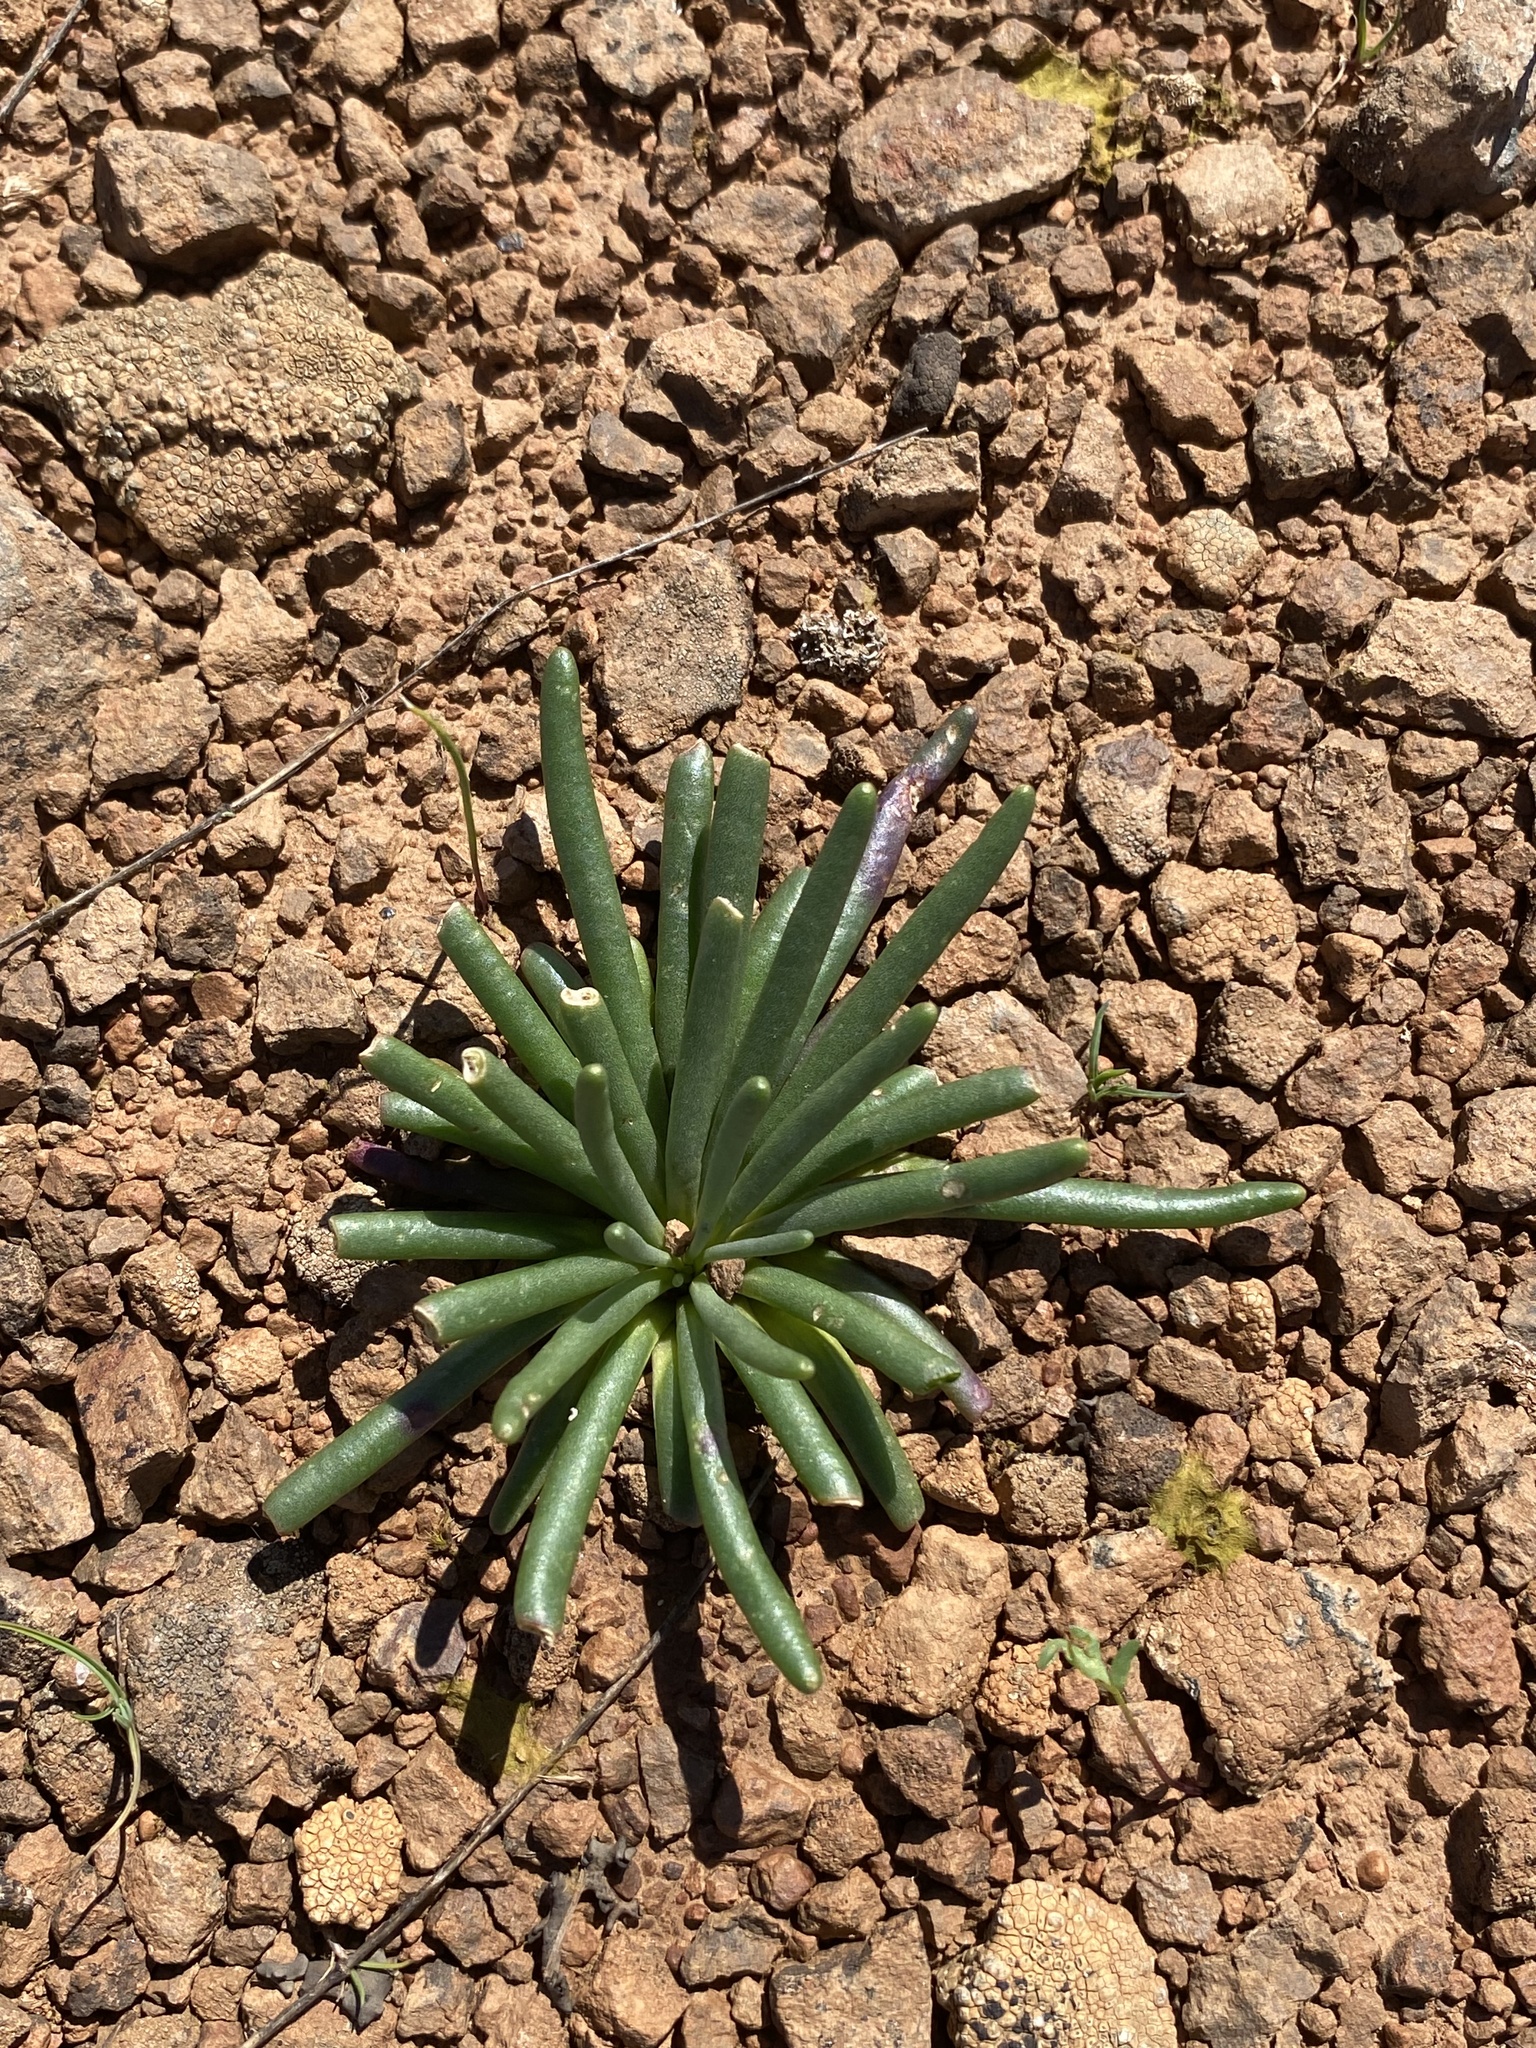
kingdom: Plantae
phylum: Tracheophyta
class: Magnoliopsida
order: Caryophyllales
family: Montiaceae
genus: Lewisia
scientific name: Lewisia rediviva
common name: Bitter-root
